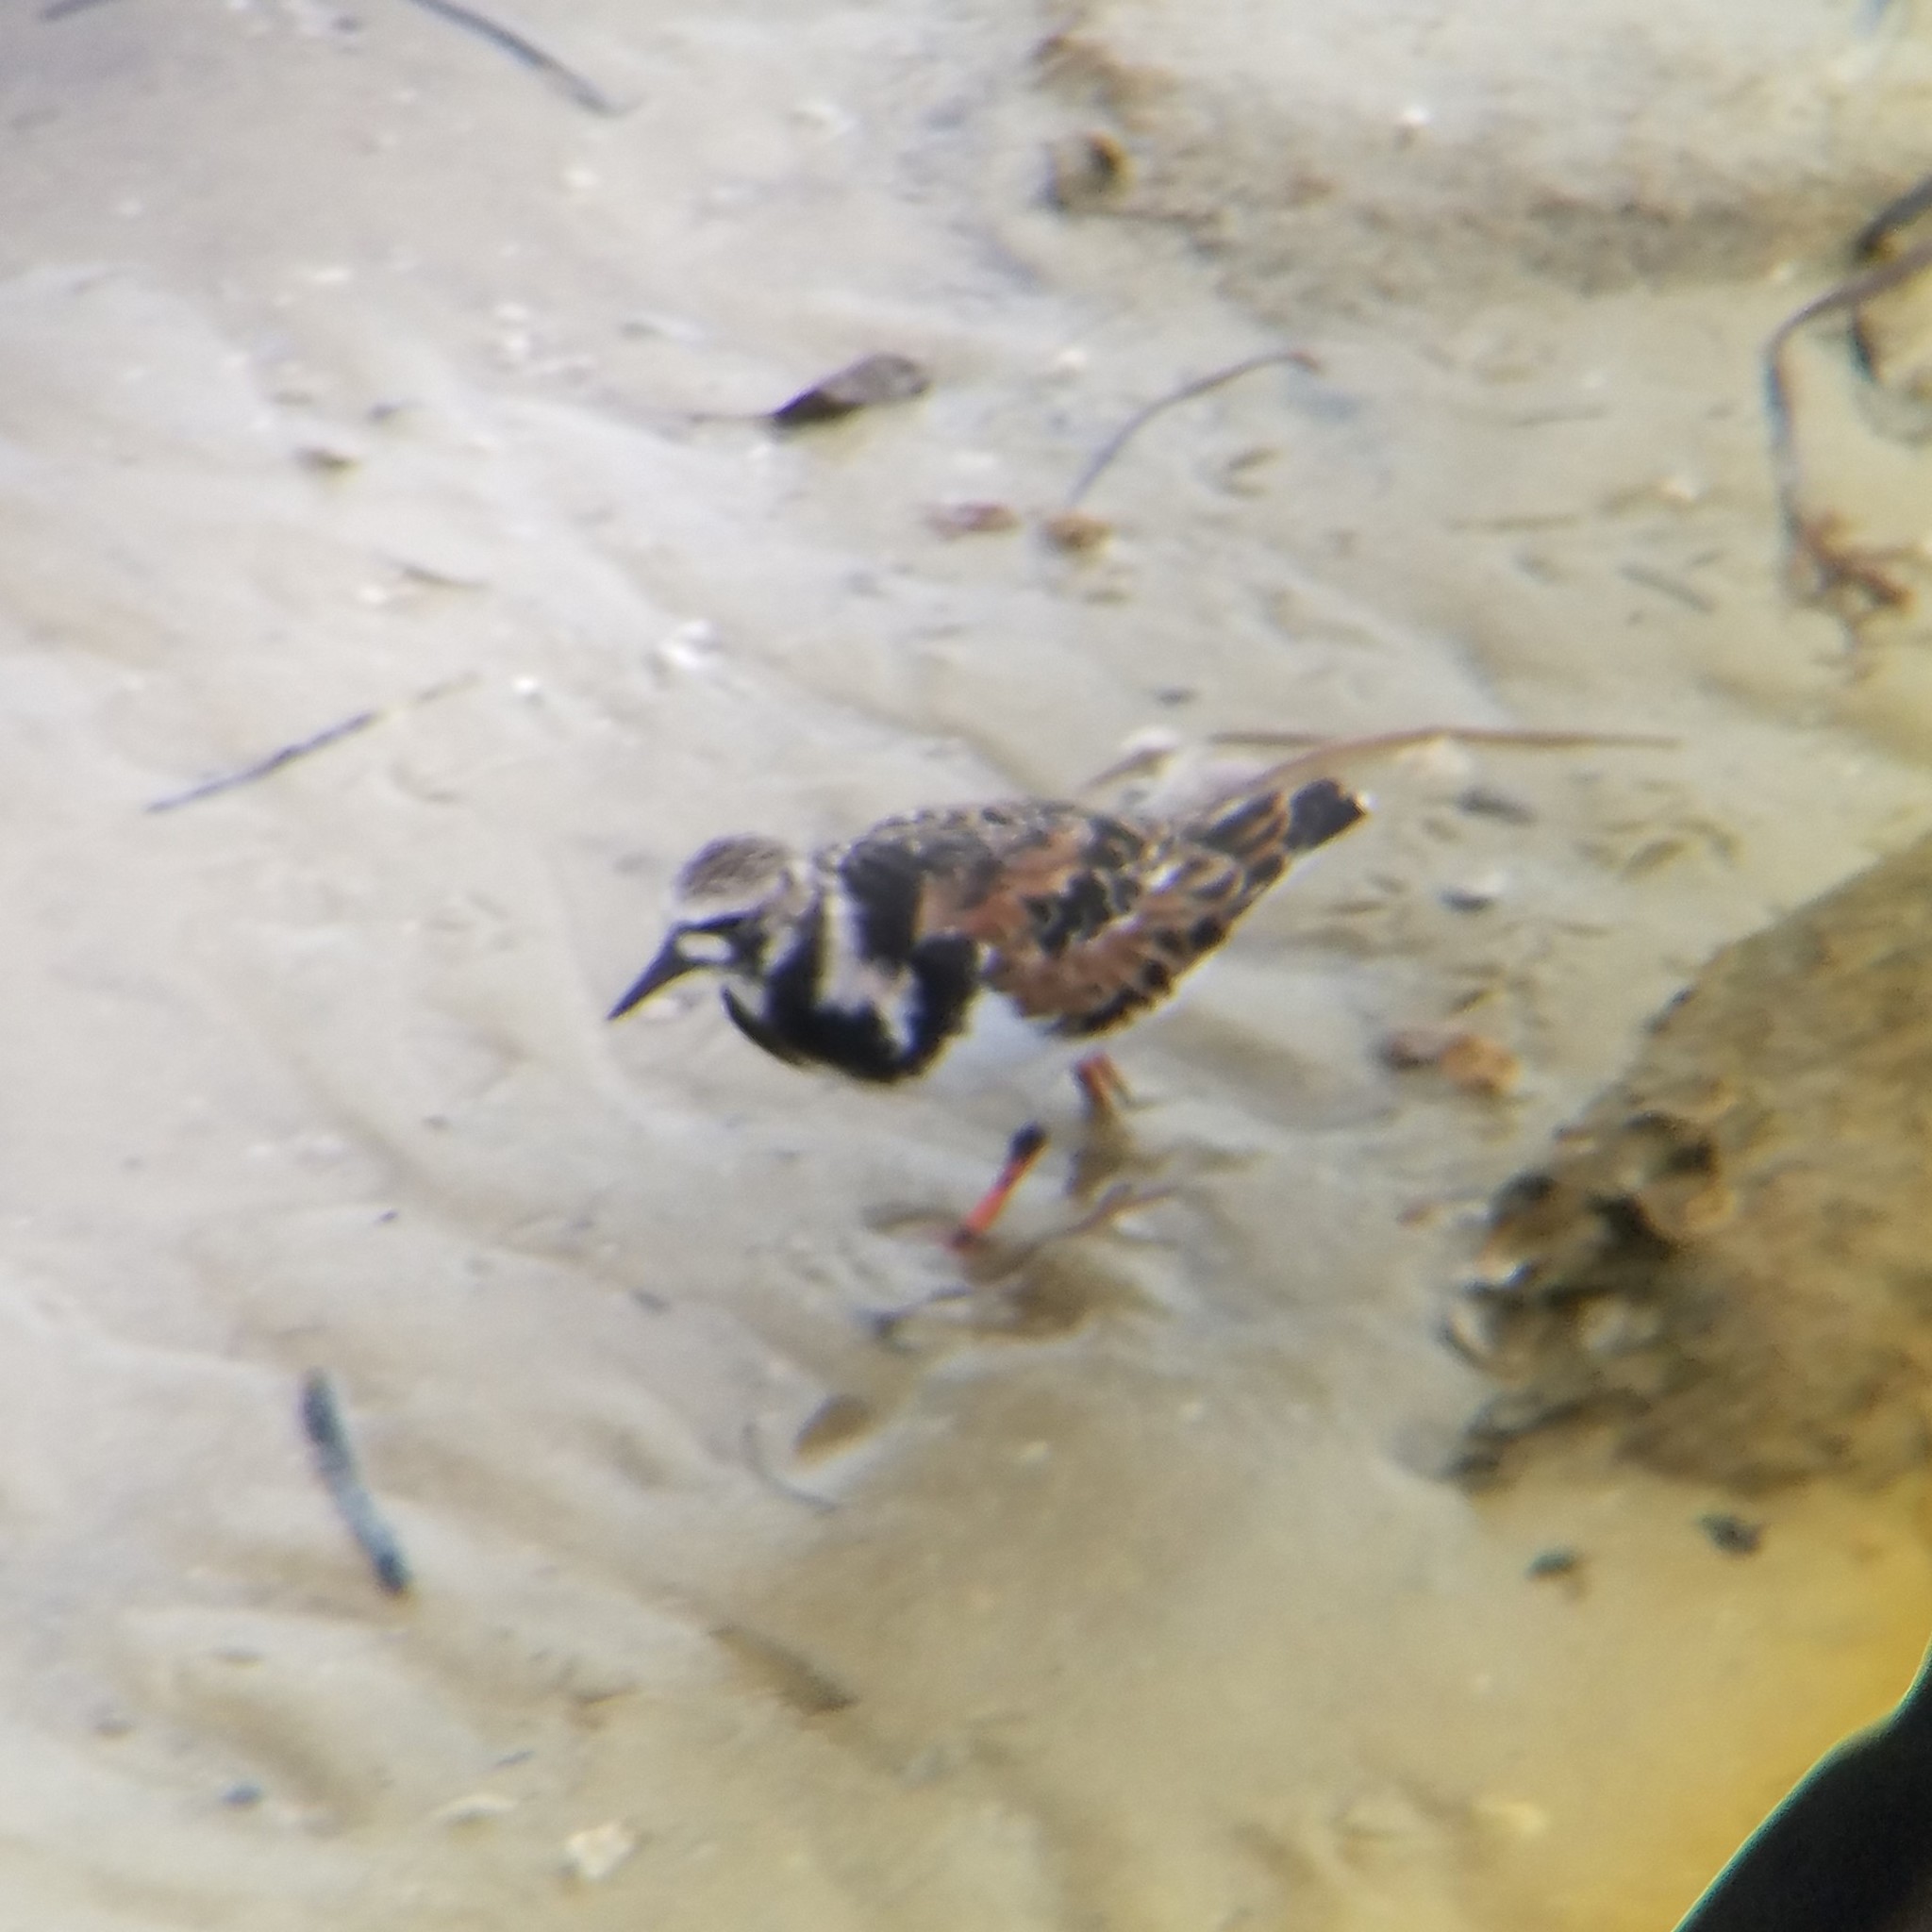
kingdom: Animalia
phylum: Chordata
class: Aves
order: Charadriiformes
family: Scolopacidae
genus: Arenaria
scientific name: Arenaria interpres
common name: Ruddy turnstone
